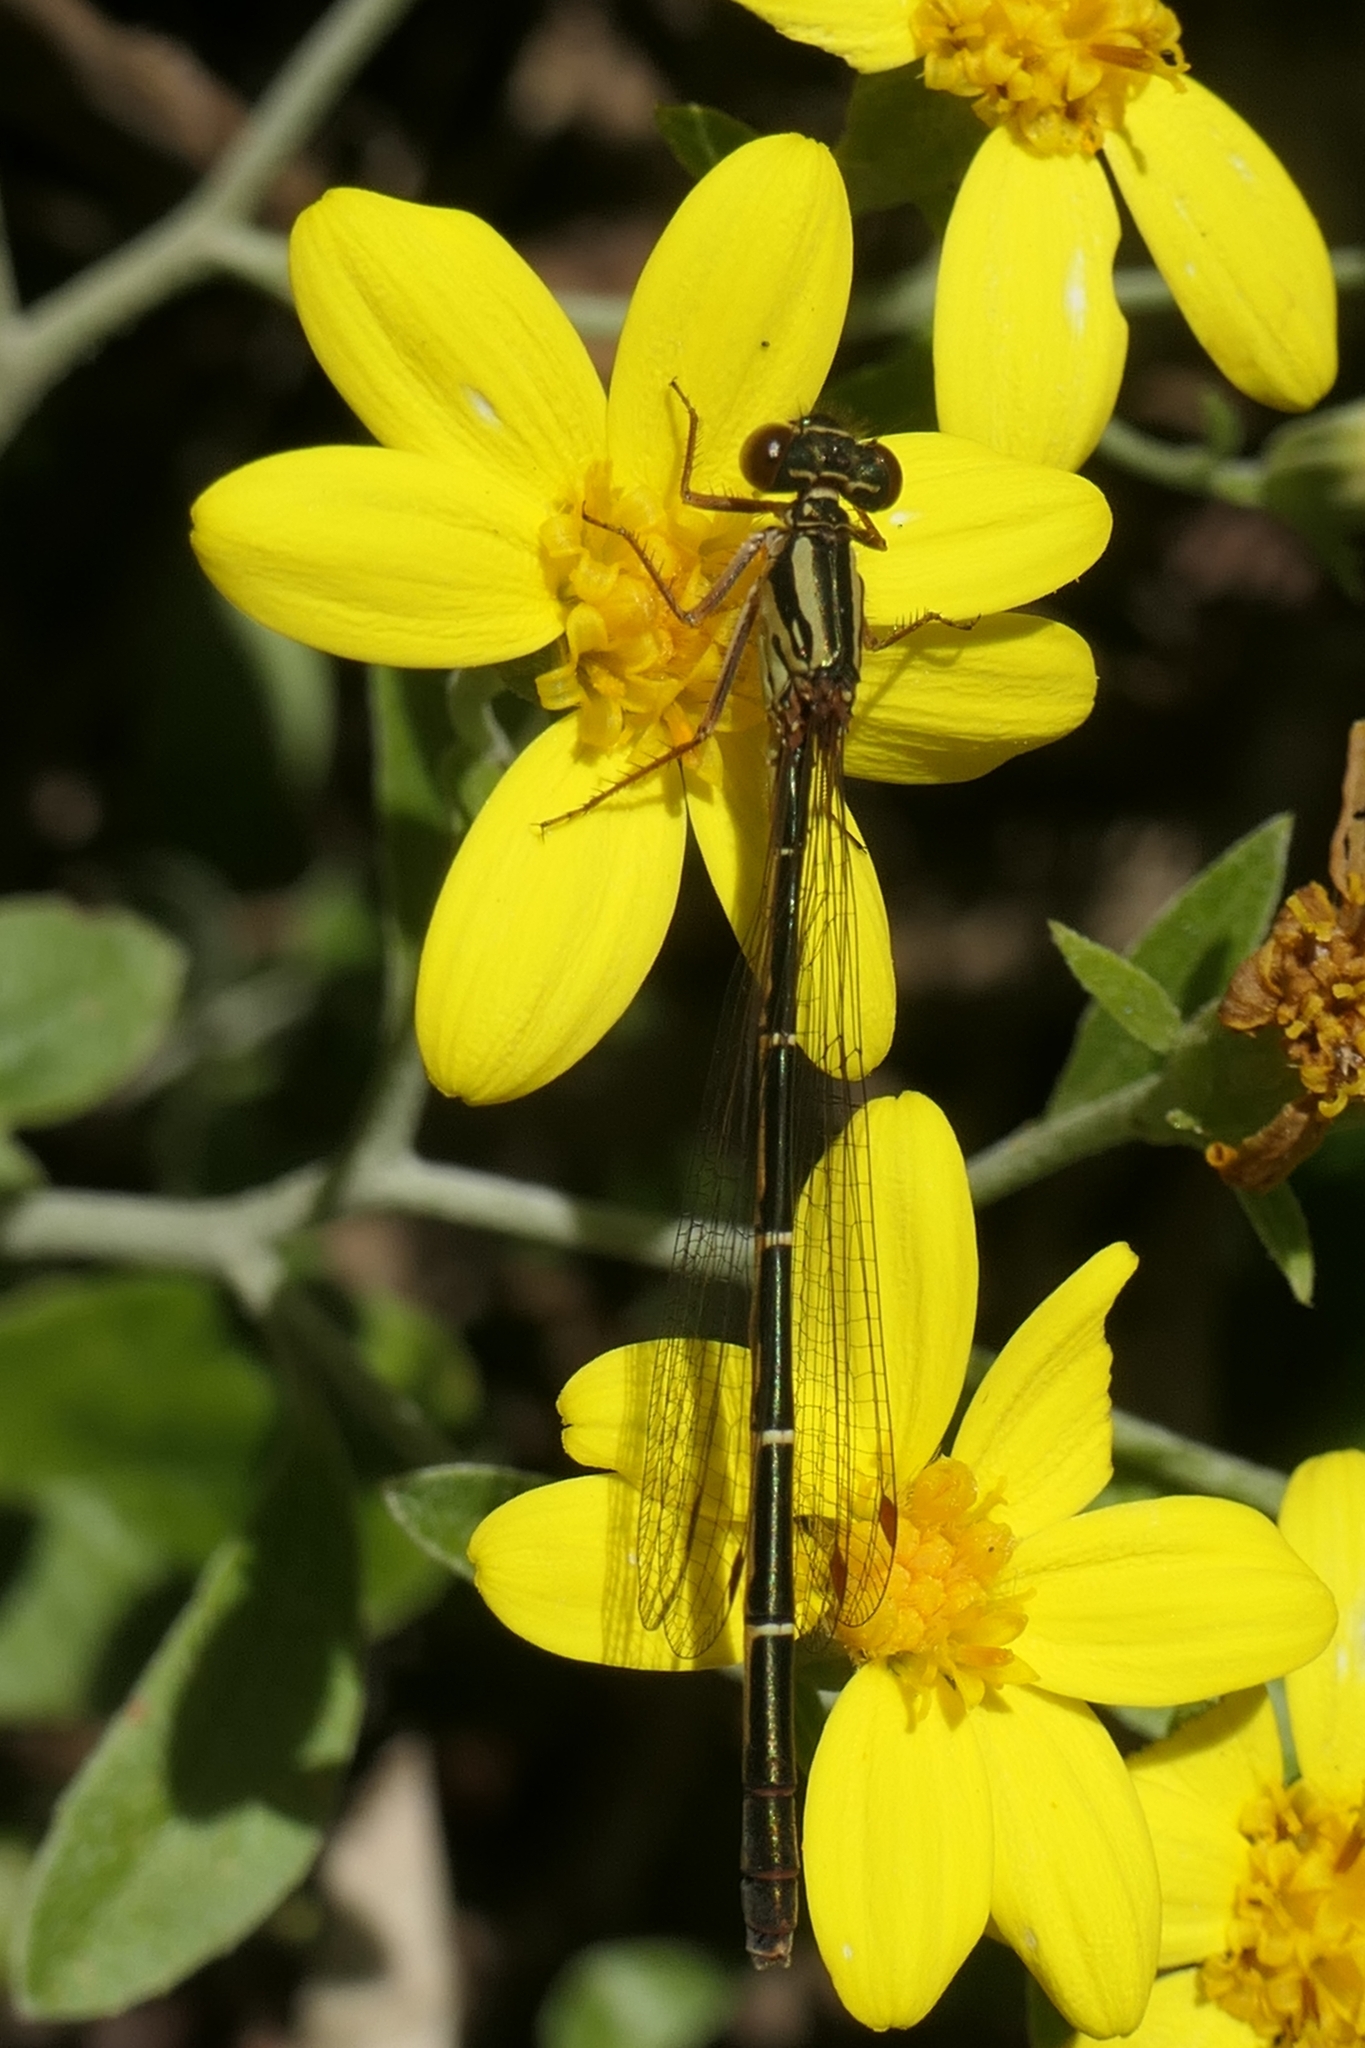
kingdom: Animalia
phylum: Arthropoda
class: Insecta
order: Odonata
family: Coenagrionidae
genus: Xanthocnemis
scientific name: Xanthocnemis zealandica
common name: Common redcoat damselfly
